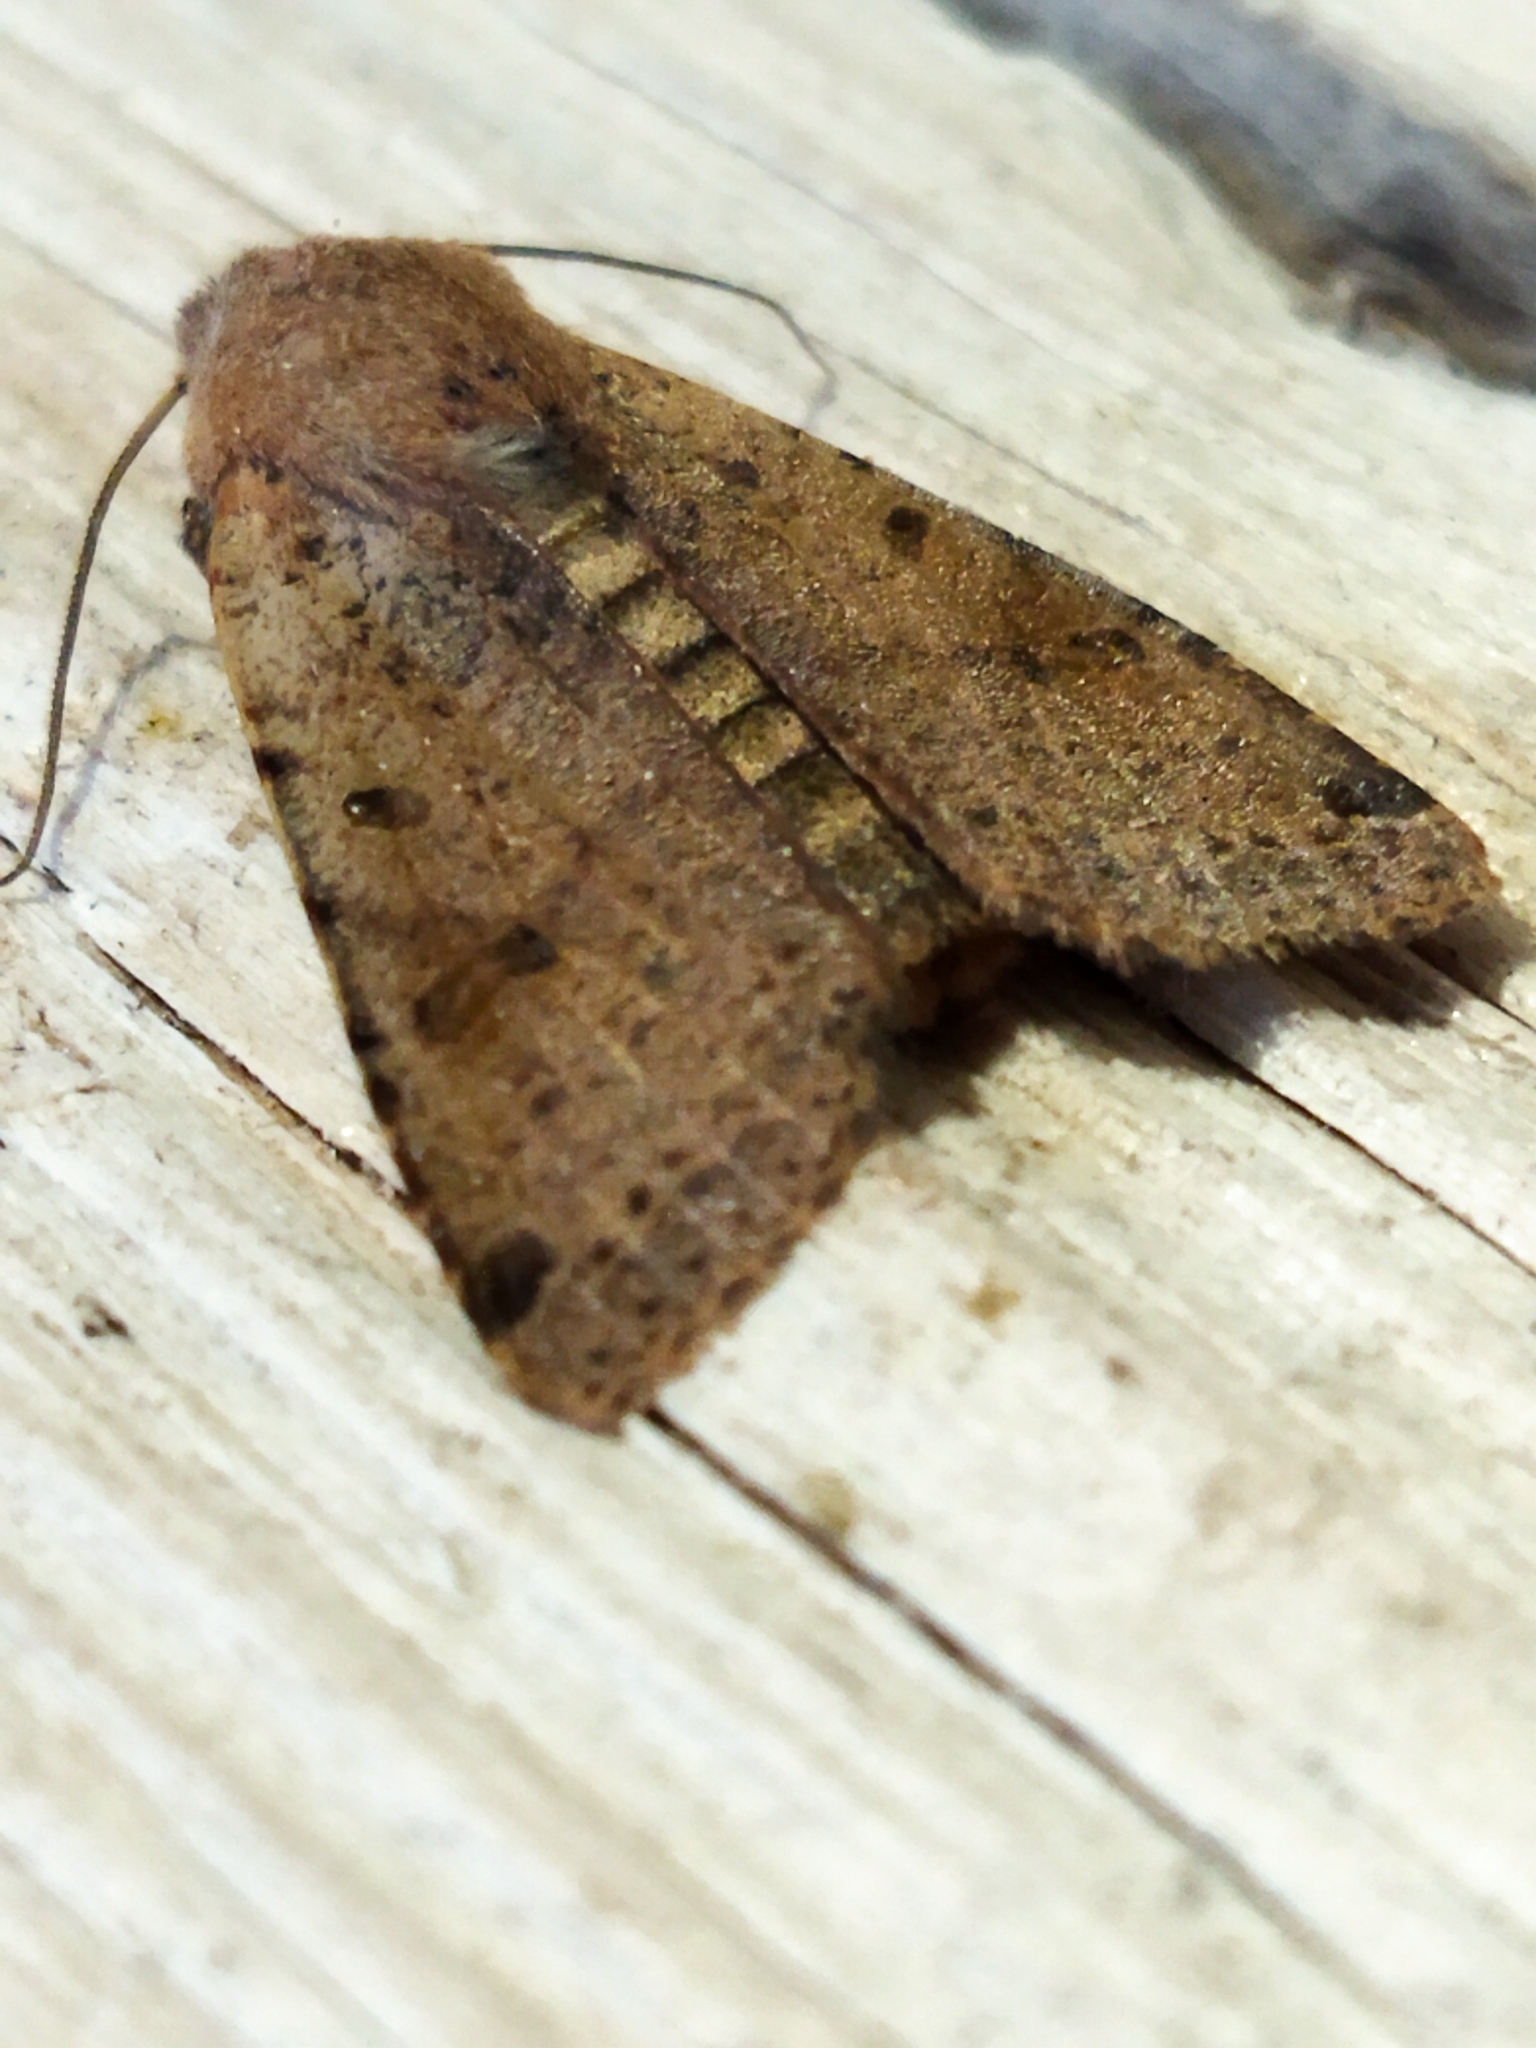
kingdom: Animalia
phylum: Arthropoda
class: Insecta
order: Lepidoptera
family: Noctuidae
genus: Agrochola
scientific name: Agrochola lychnidis
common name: Beaded chestnut
